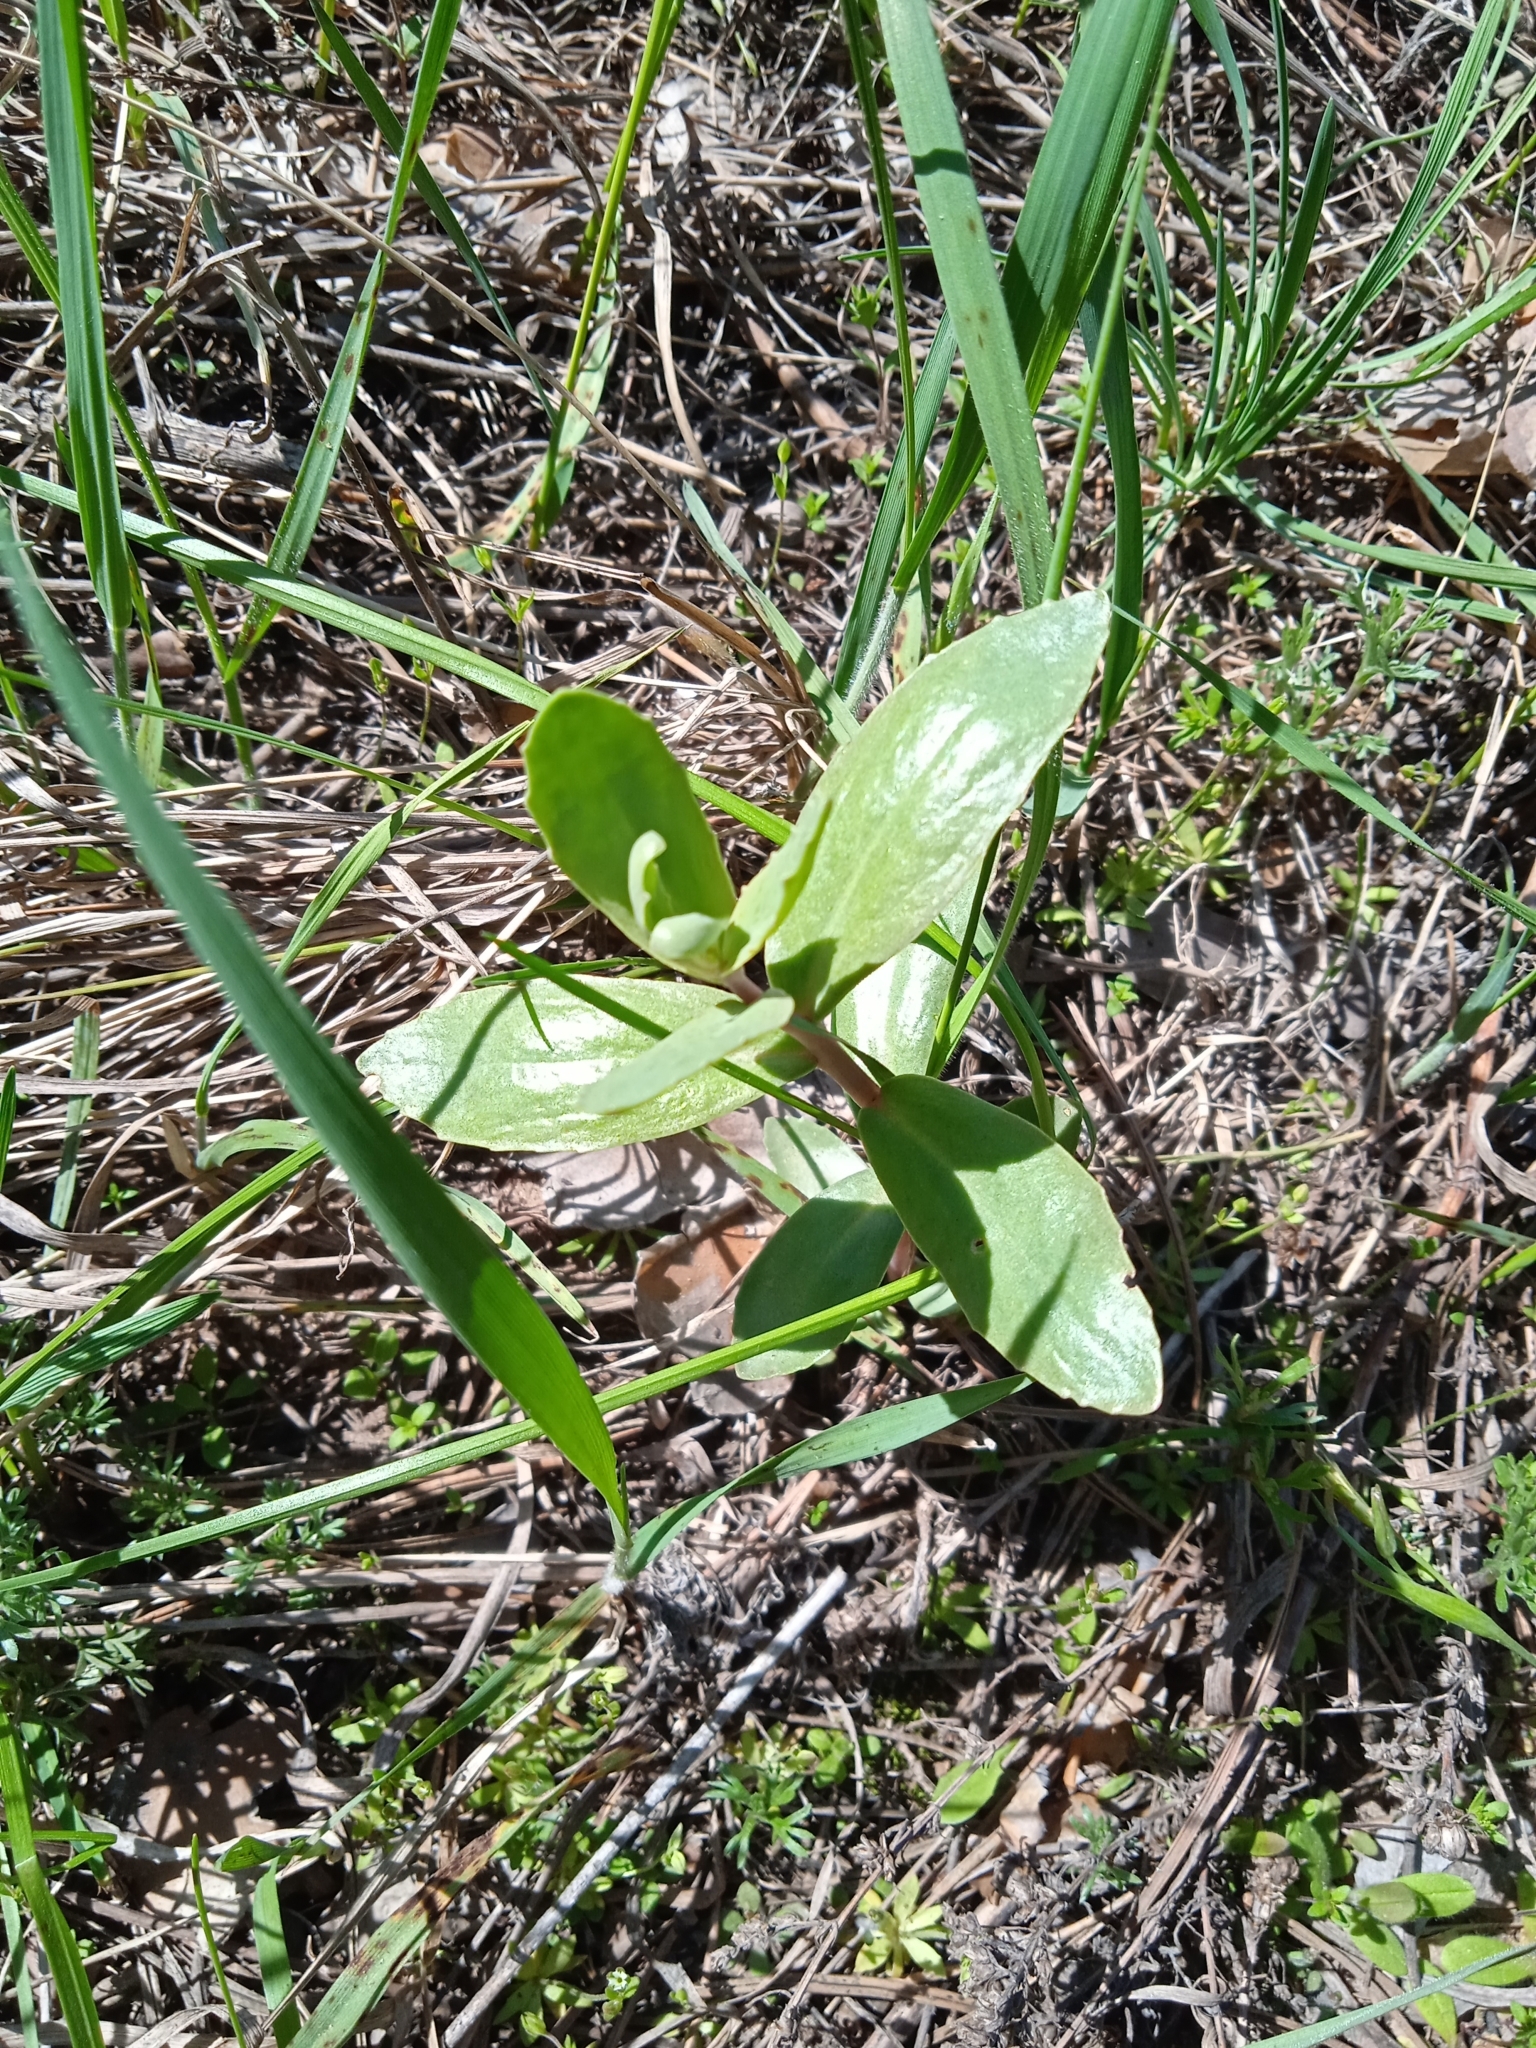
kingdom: Plantae
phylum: Tracheophyta
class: Magnoliopsida
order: Saxifragales
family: Crassulaceae
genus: Hylotelephium
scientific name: Hylotelephium maximum
